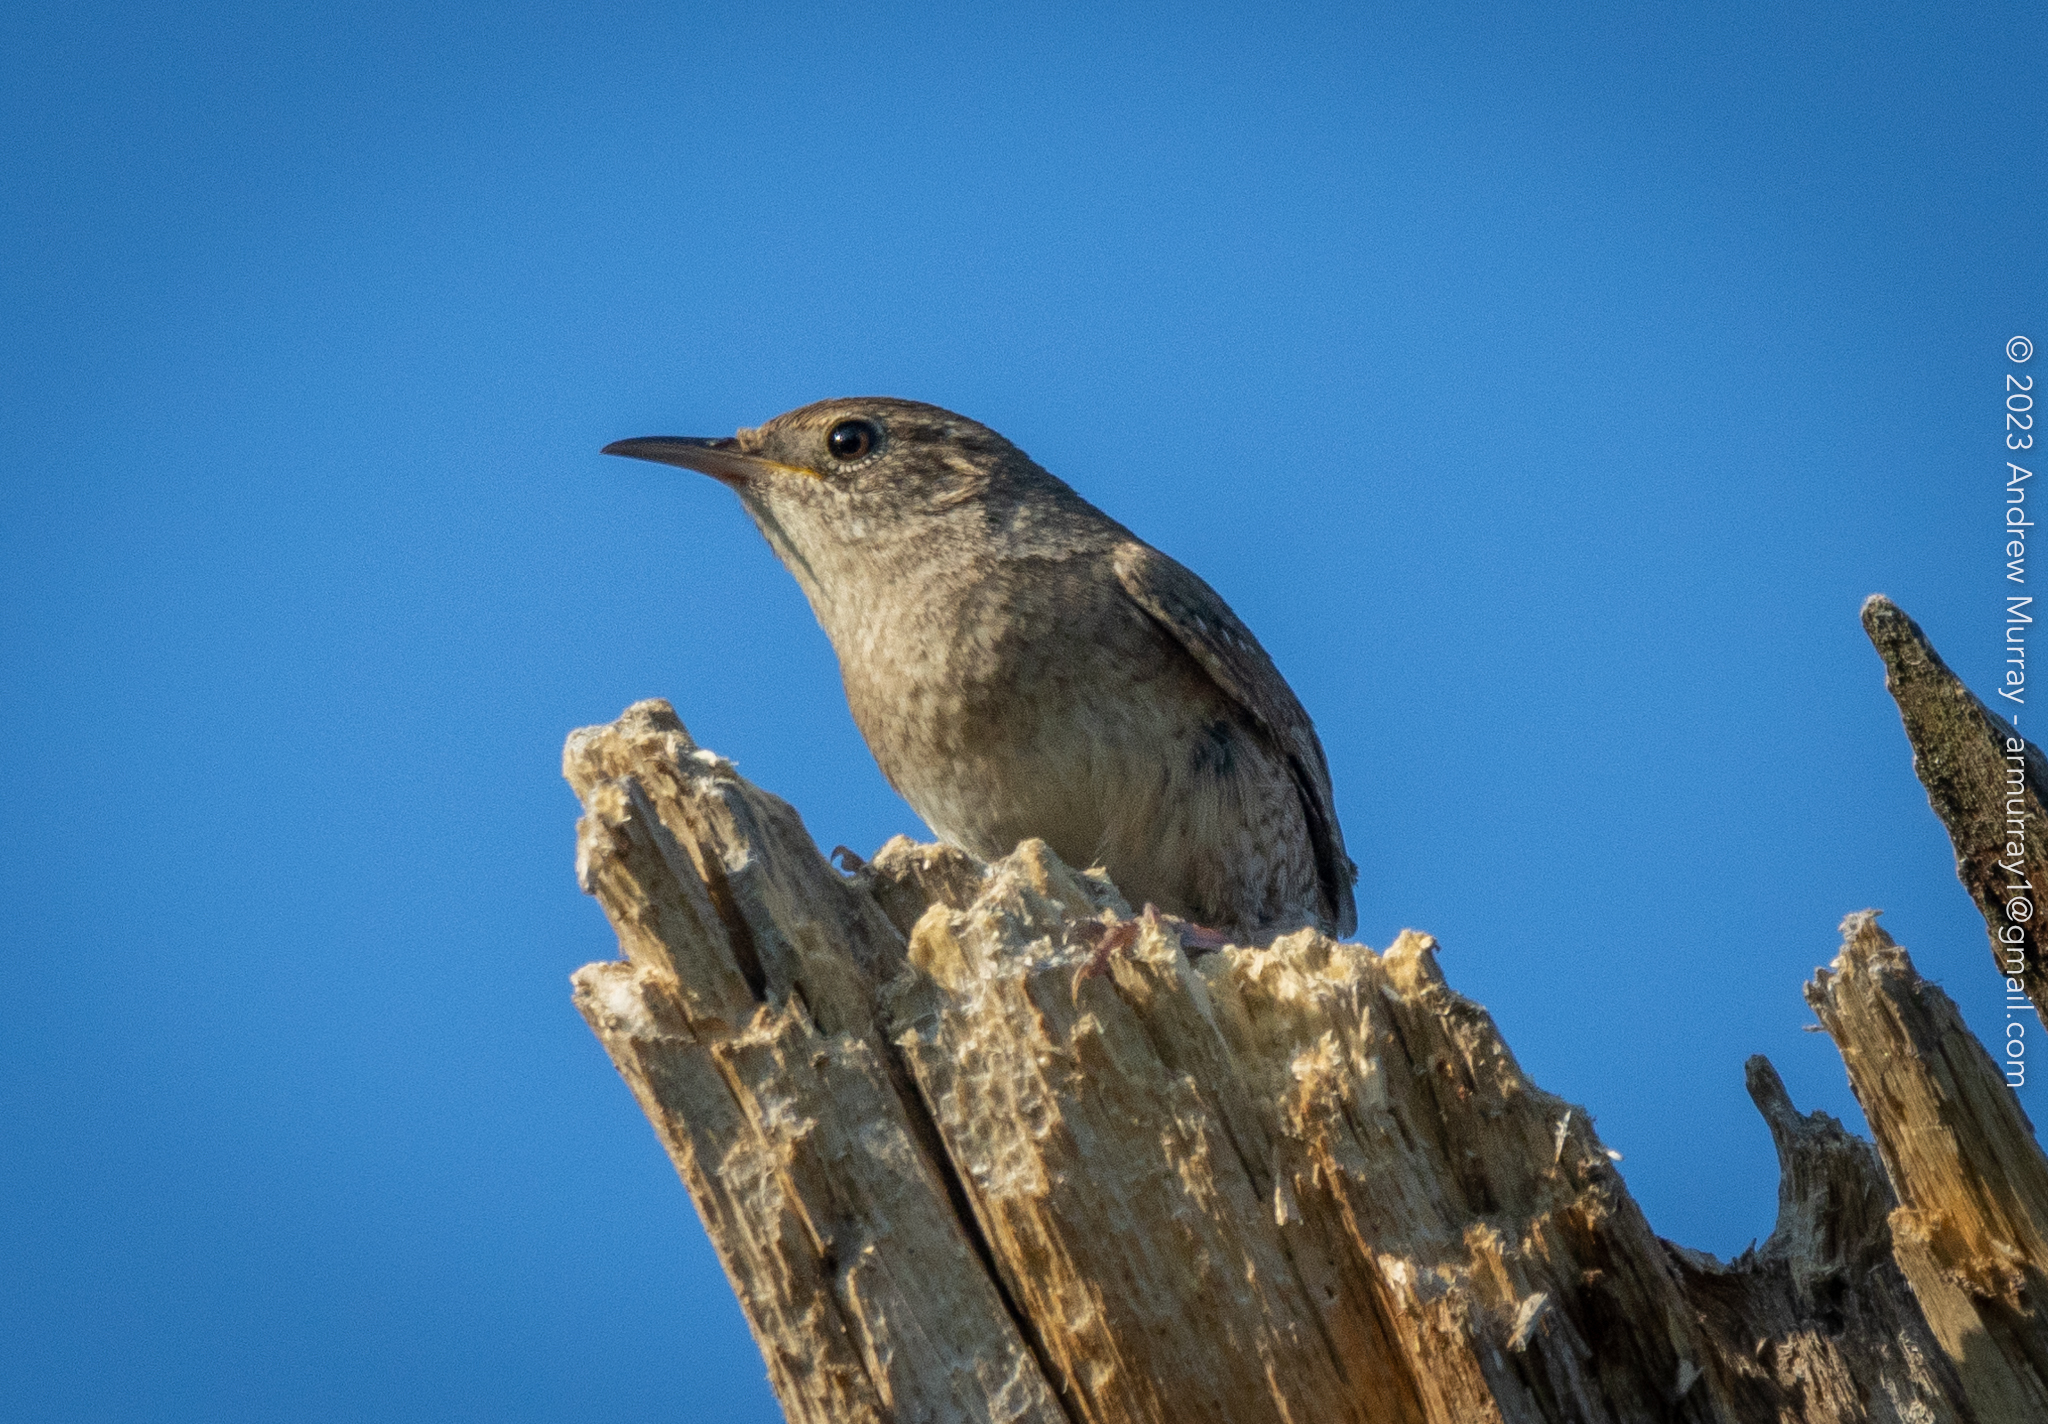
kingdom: Animalia
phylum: Chordata
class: Aves
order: Passeriformes
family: Troglodytidae
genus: Troglodytes
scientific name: Troglodytes aedon
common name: House wren
